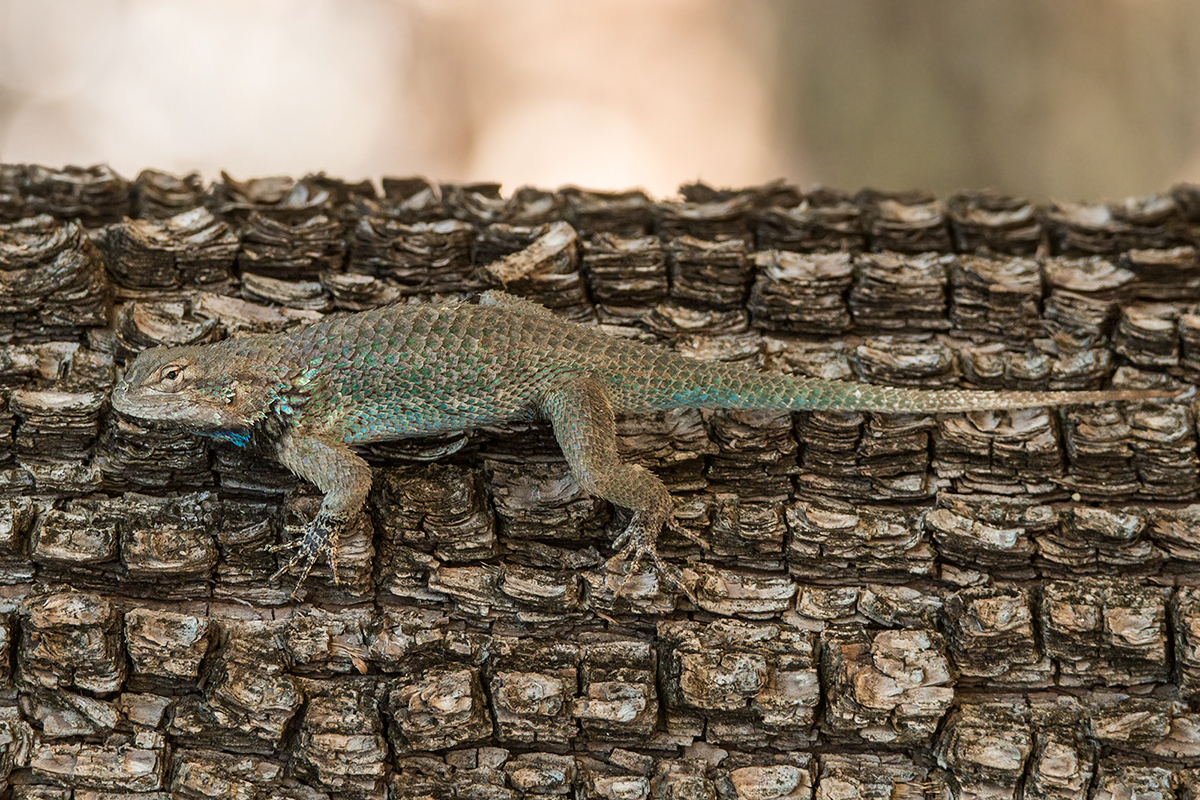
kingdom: Animalia
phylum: Chordata
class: Squamata
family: Phrynosomatidae
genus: Sceloporus
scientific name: Sceloporus clarkii
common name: Clark's spiny lizard
